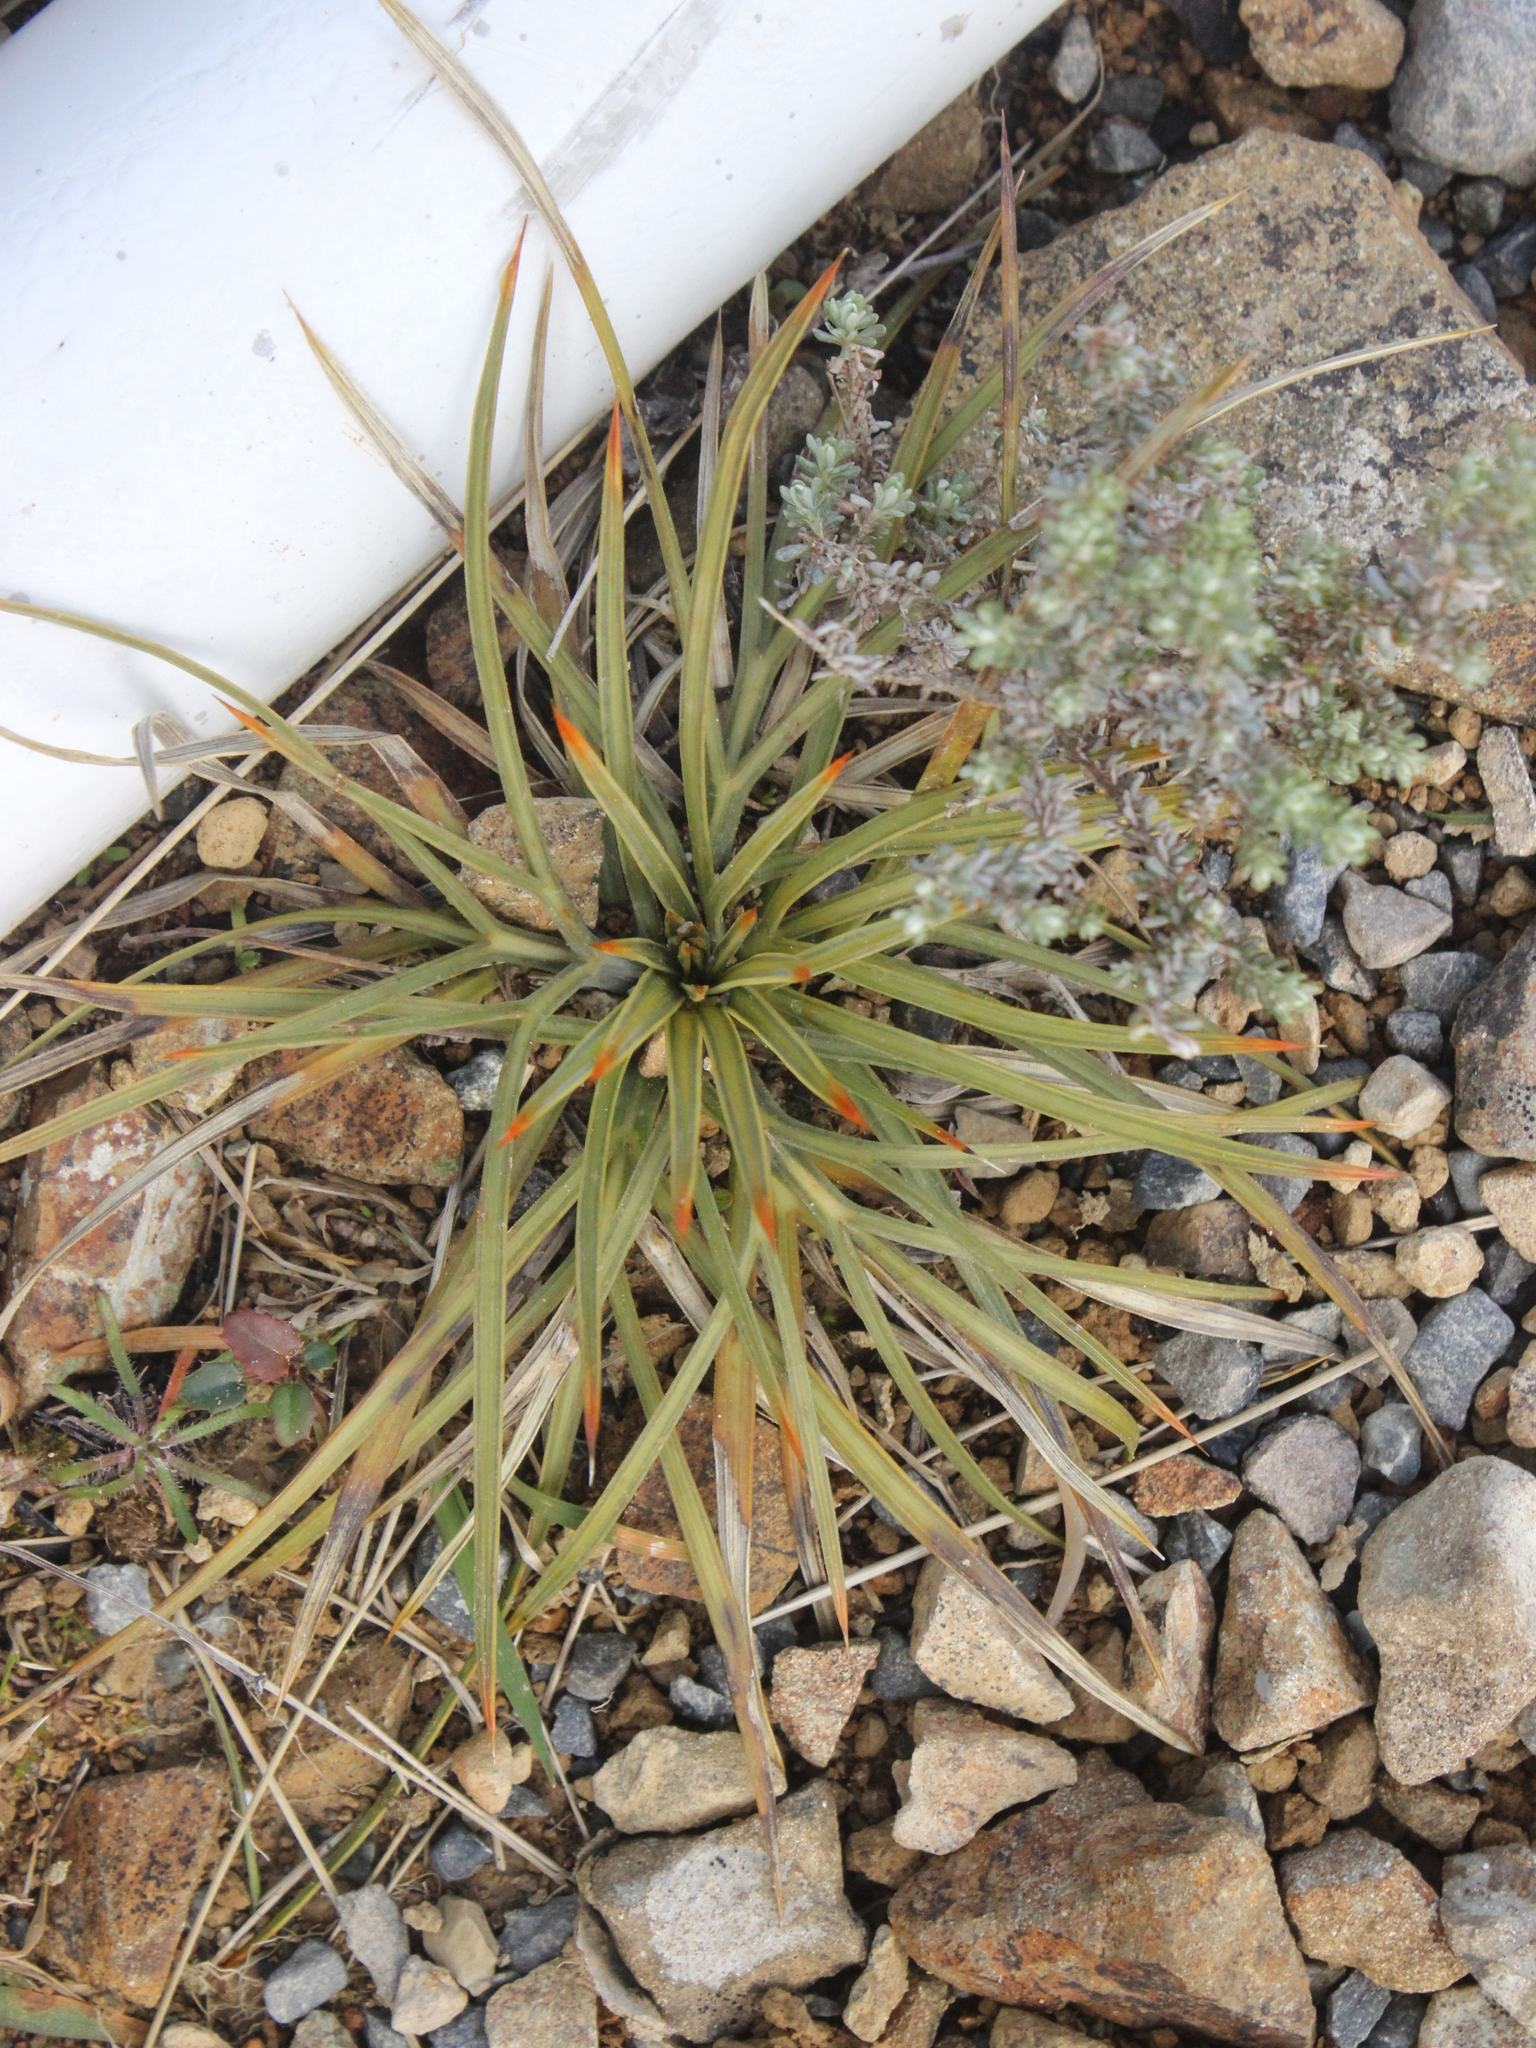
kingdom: Plantae
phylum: Tracheophyta
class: Magnoliopsida
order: Apiales
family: Apiaceae
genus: Aciphylla
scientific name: Aciphylla squarrosa
